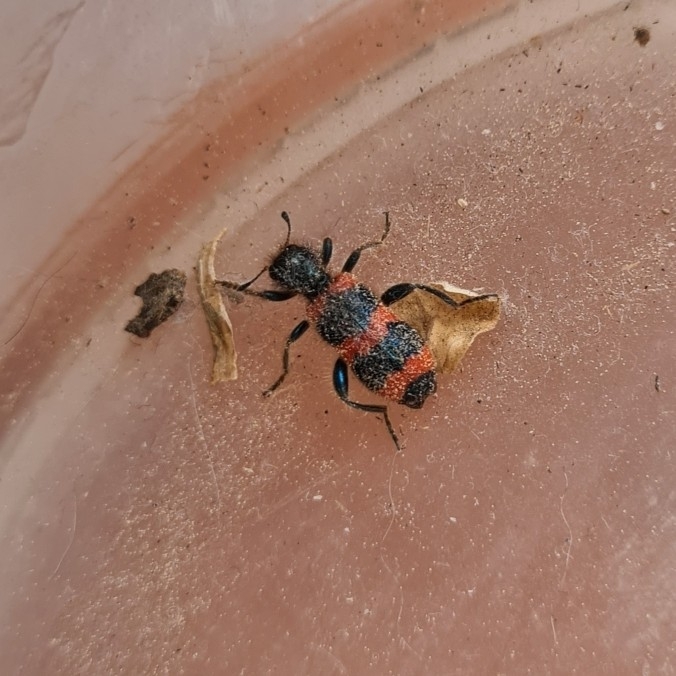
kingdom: Animalia
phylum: Arthropoda
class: Insecta
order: Coleoptera
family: Cleridae
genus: Trichodes
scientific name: Trichodes apiarius
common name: Bee-eating beetle
